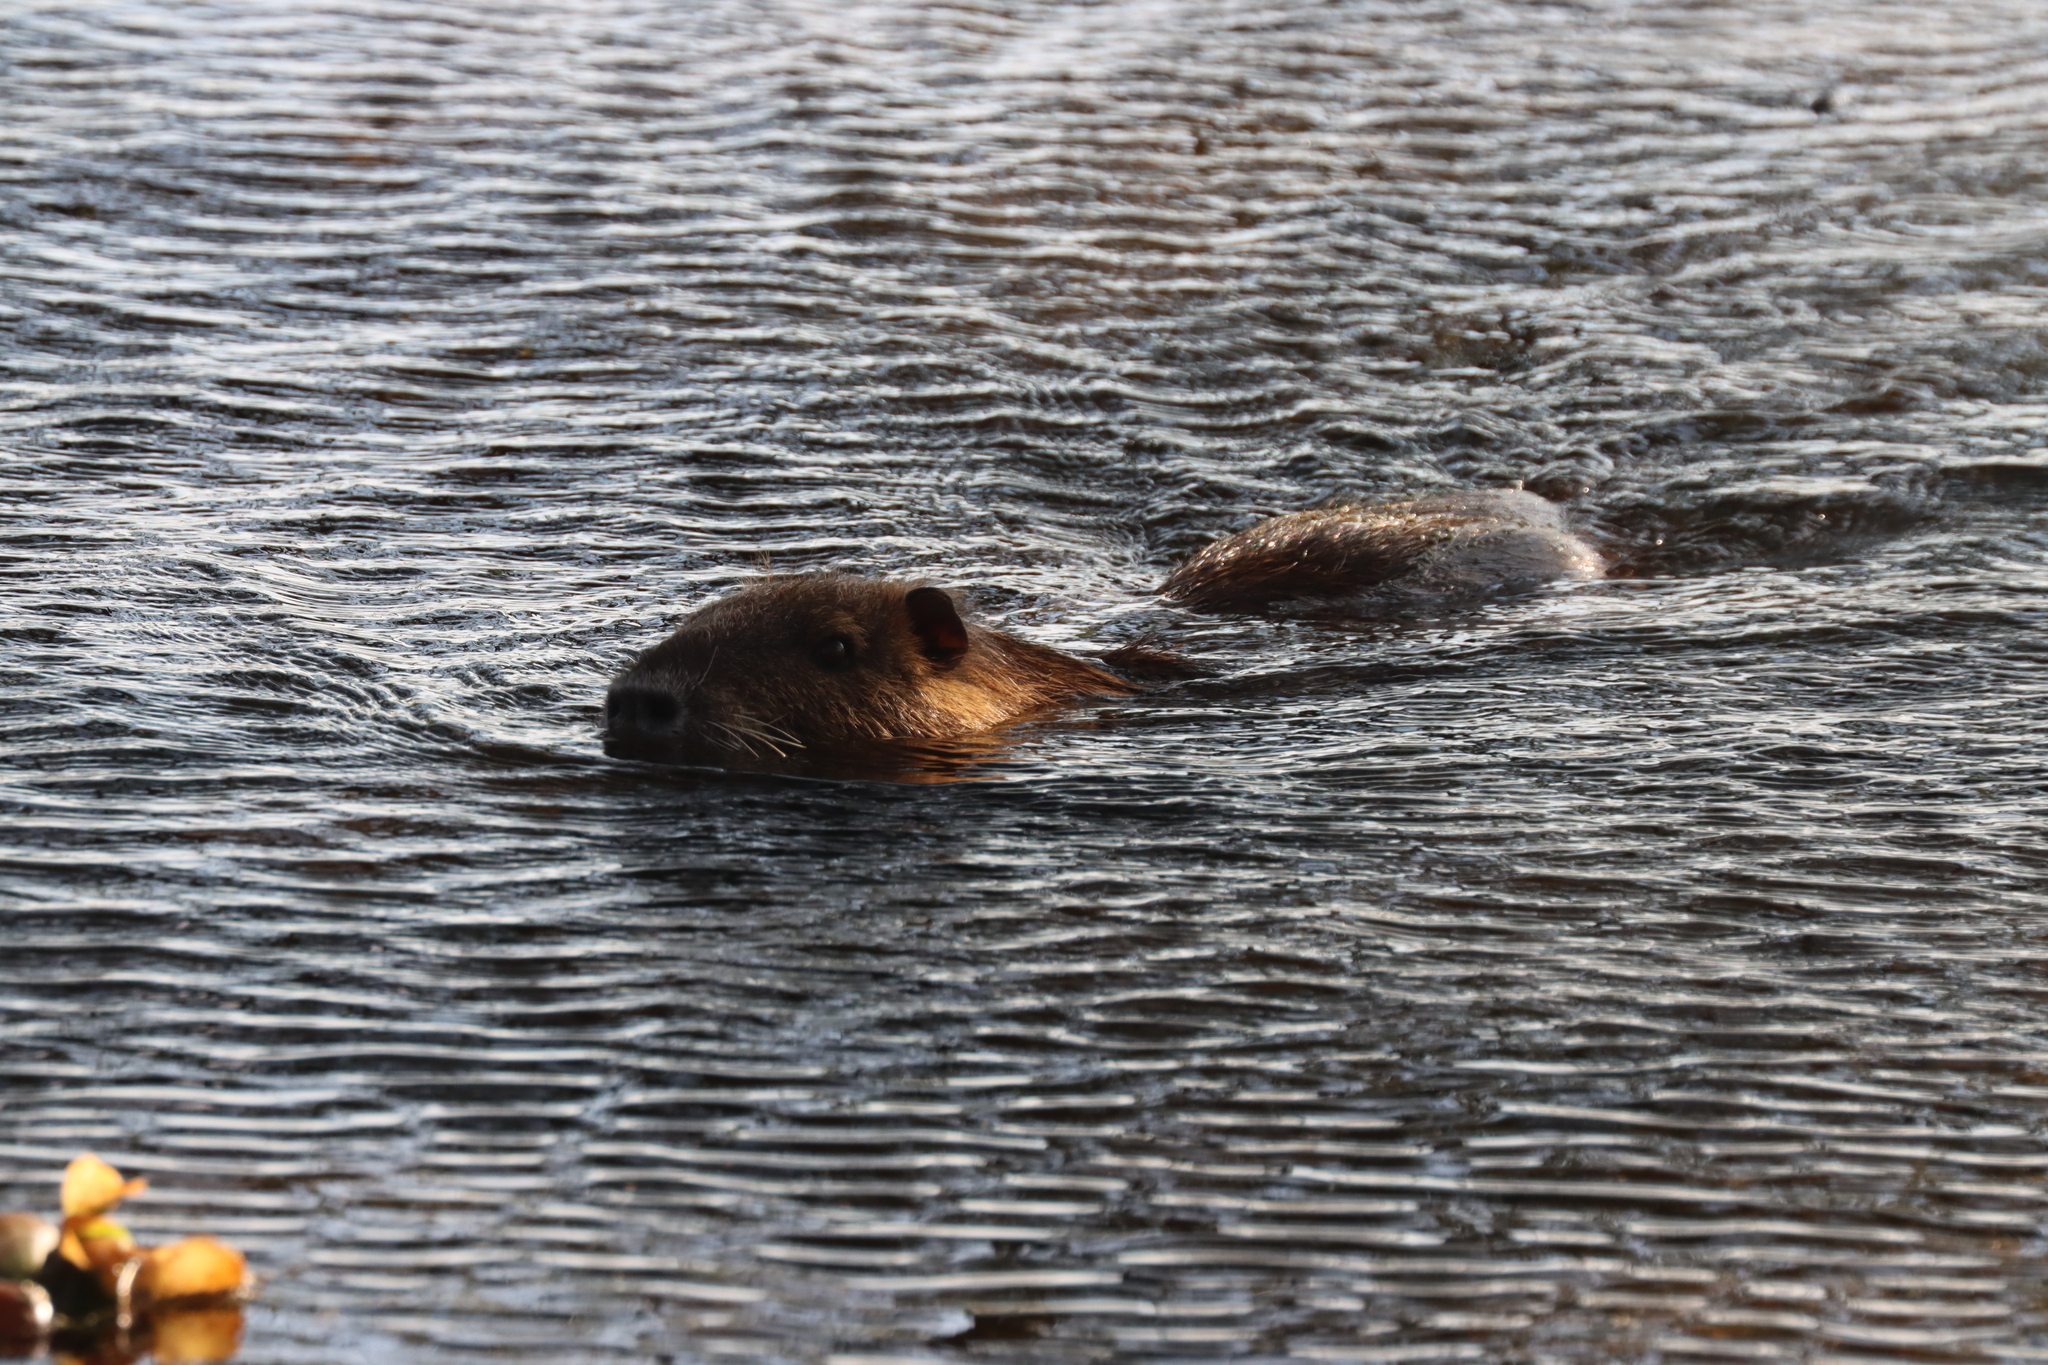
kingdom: Animalia
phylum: Chordata
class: Mammalia
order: Rodentia
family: Myocastoridae
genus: Myocastor
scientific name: Myocastor coypus
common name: Coypu
